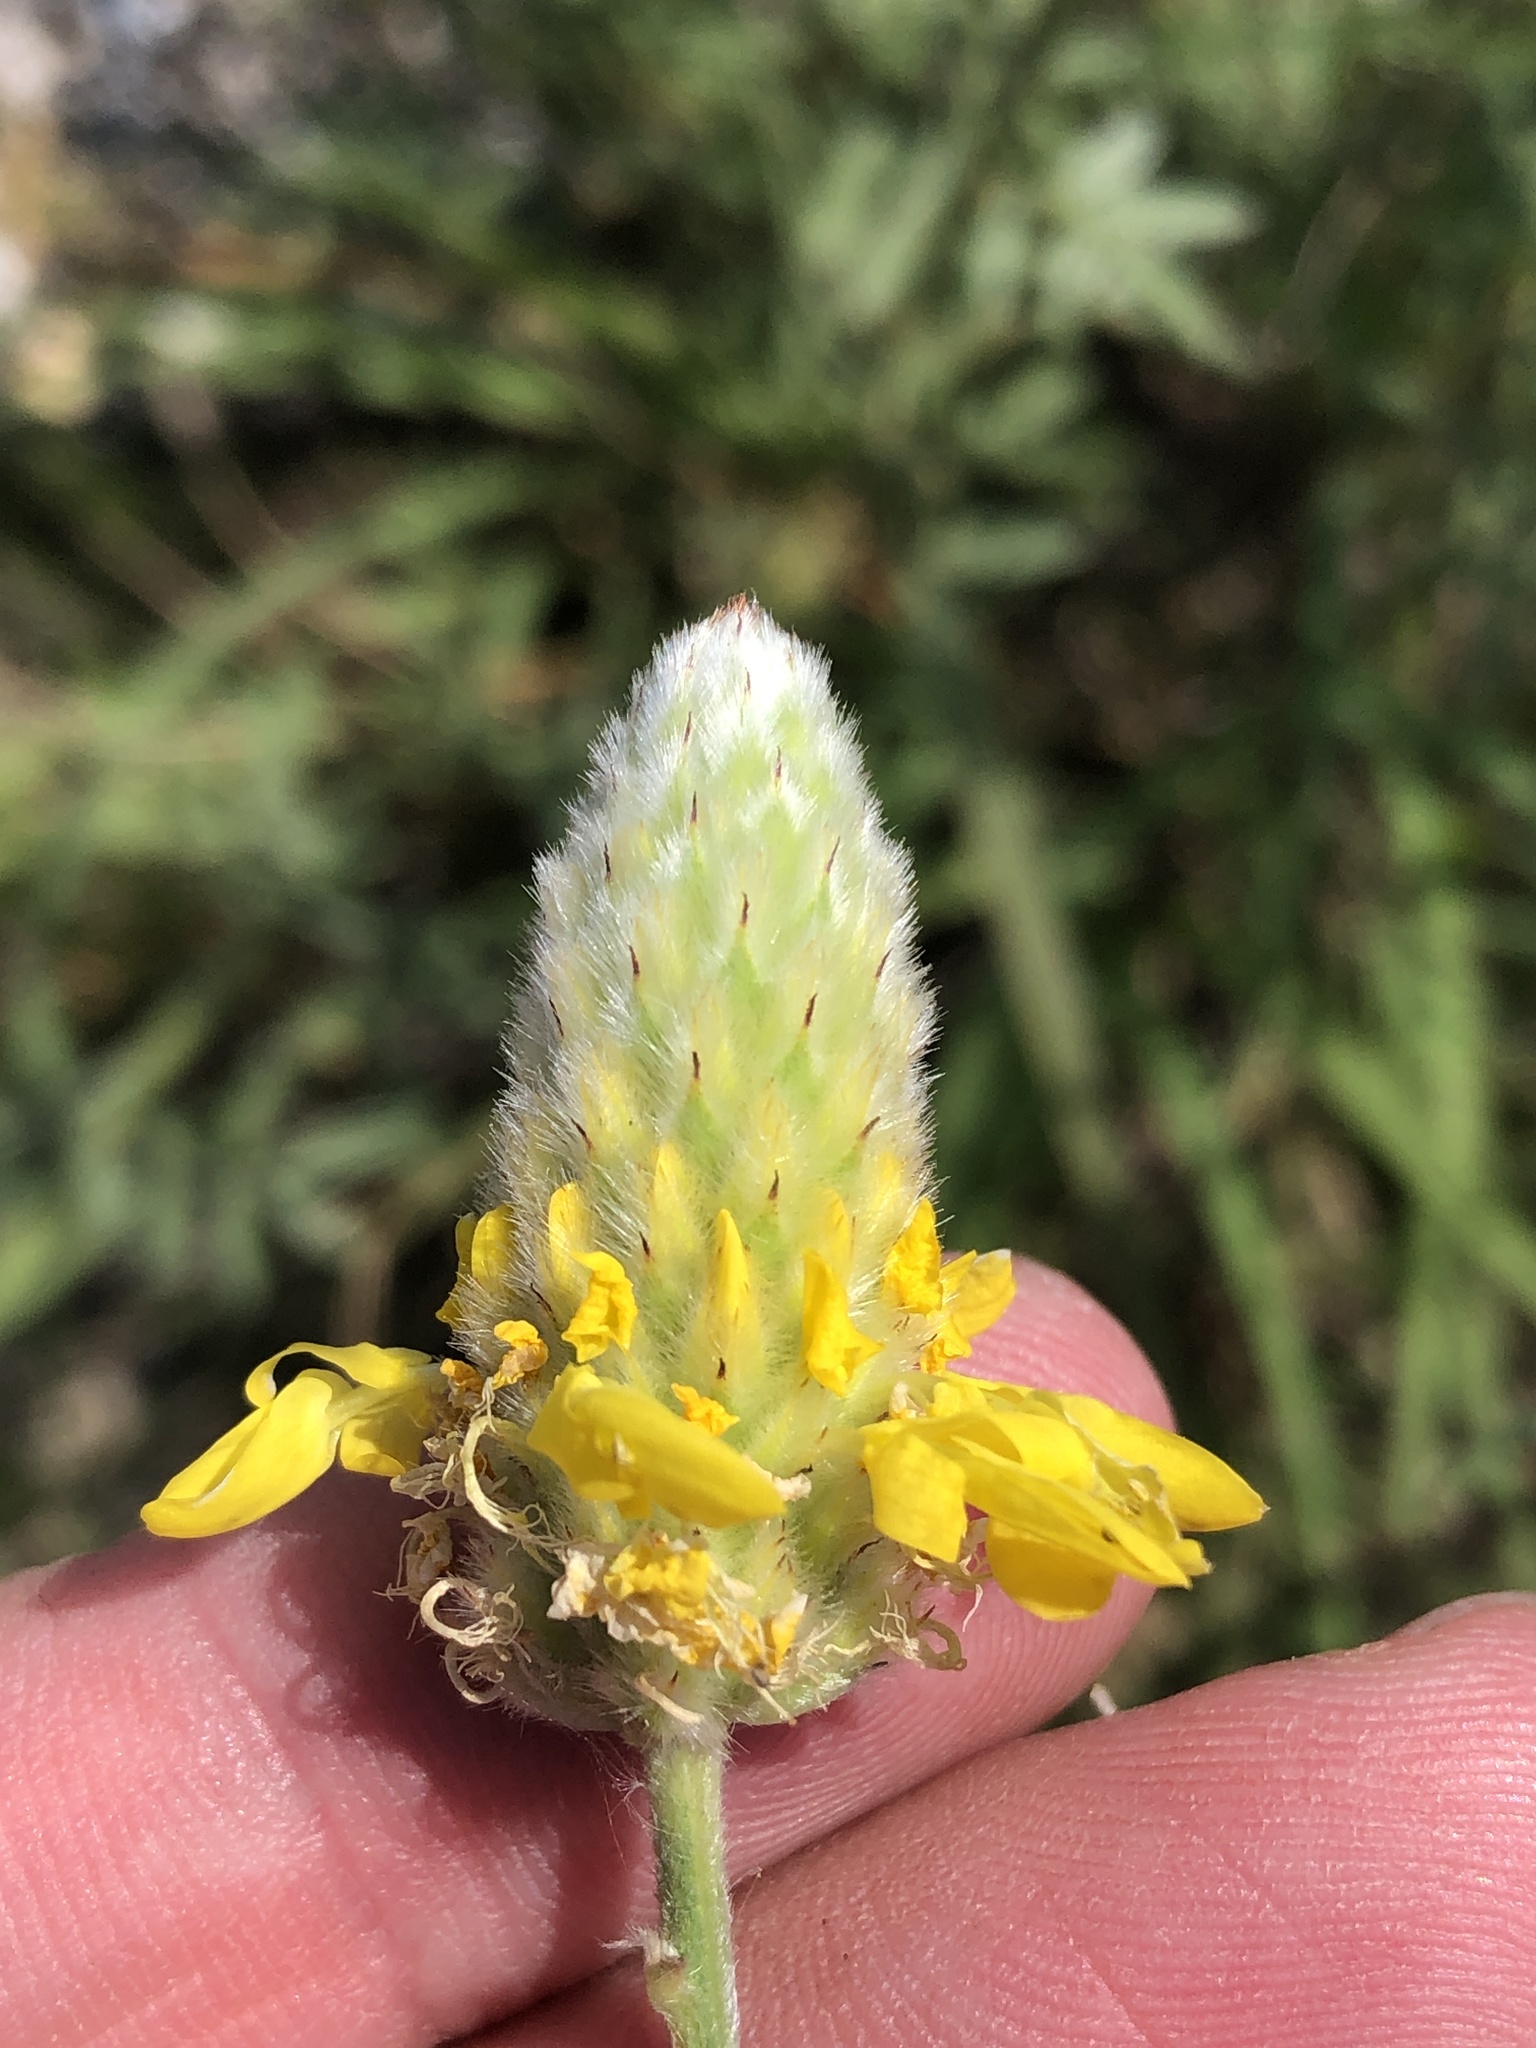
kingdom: Plantae
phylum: Tracheophyta
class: Magnoliopsida
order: Fabales
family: Fabaceae
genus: Dalea
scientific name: Dalea aurea
